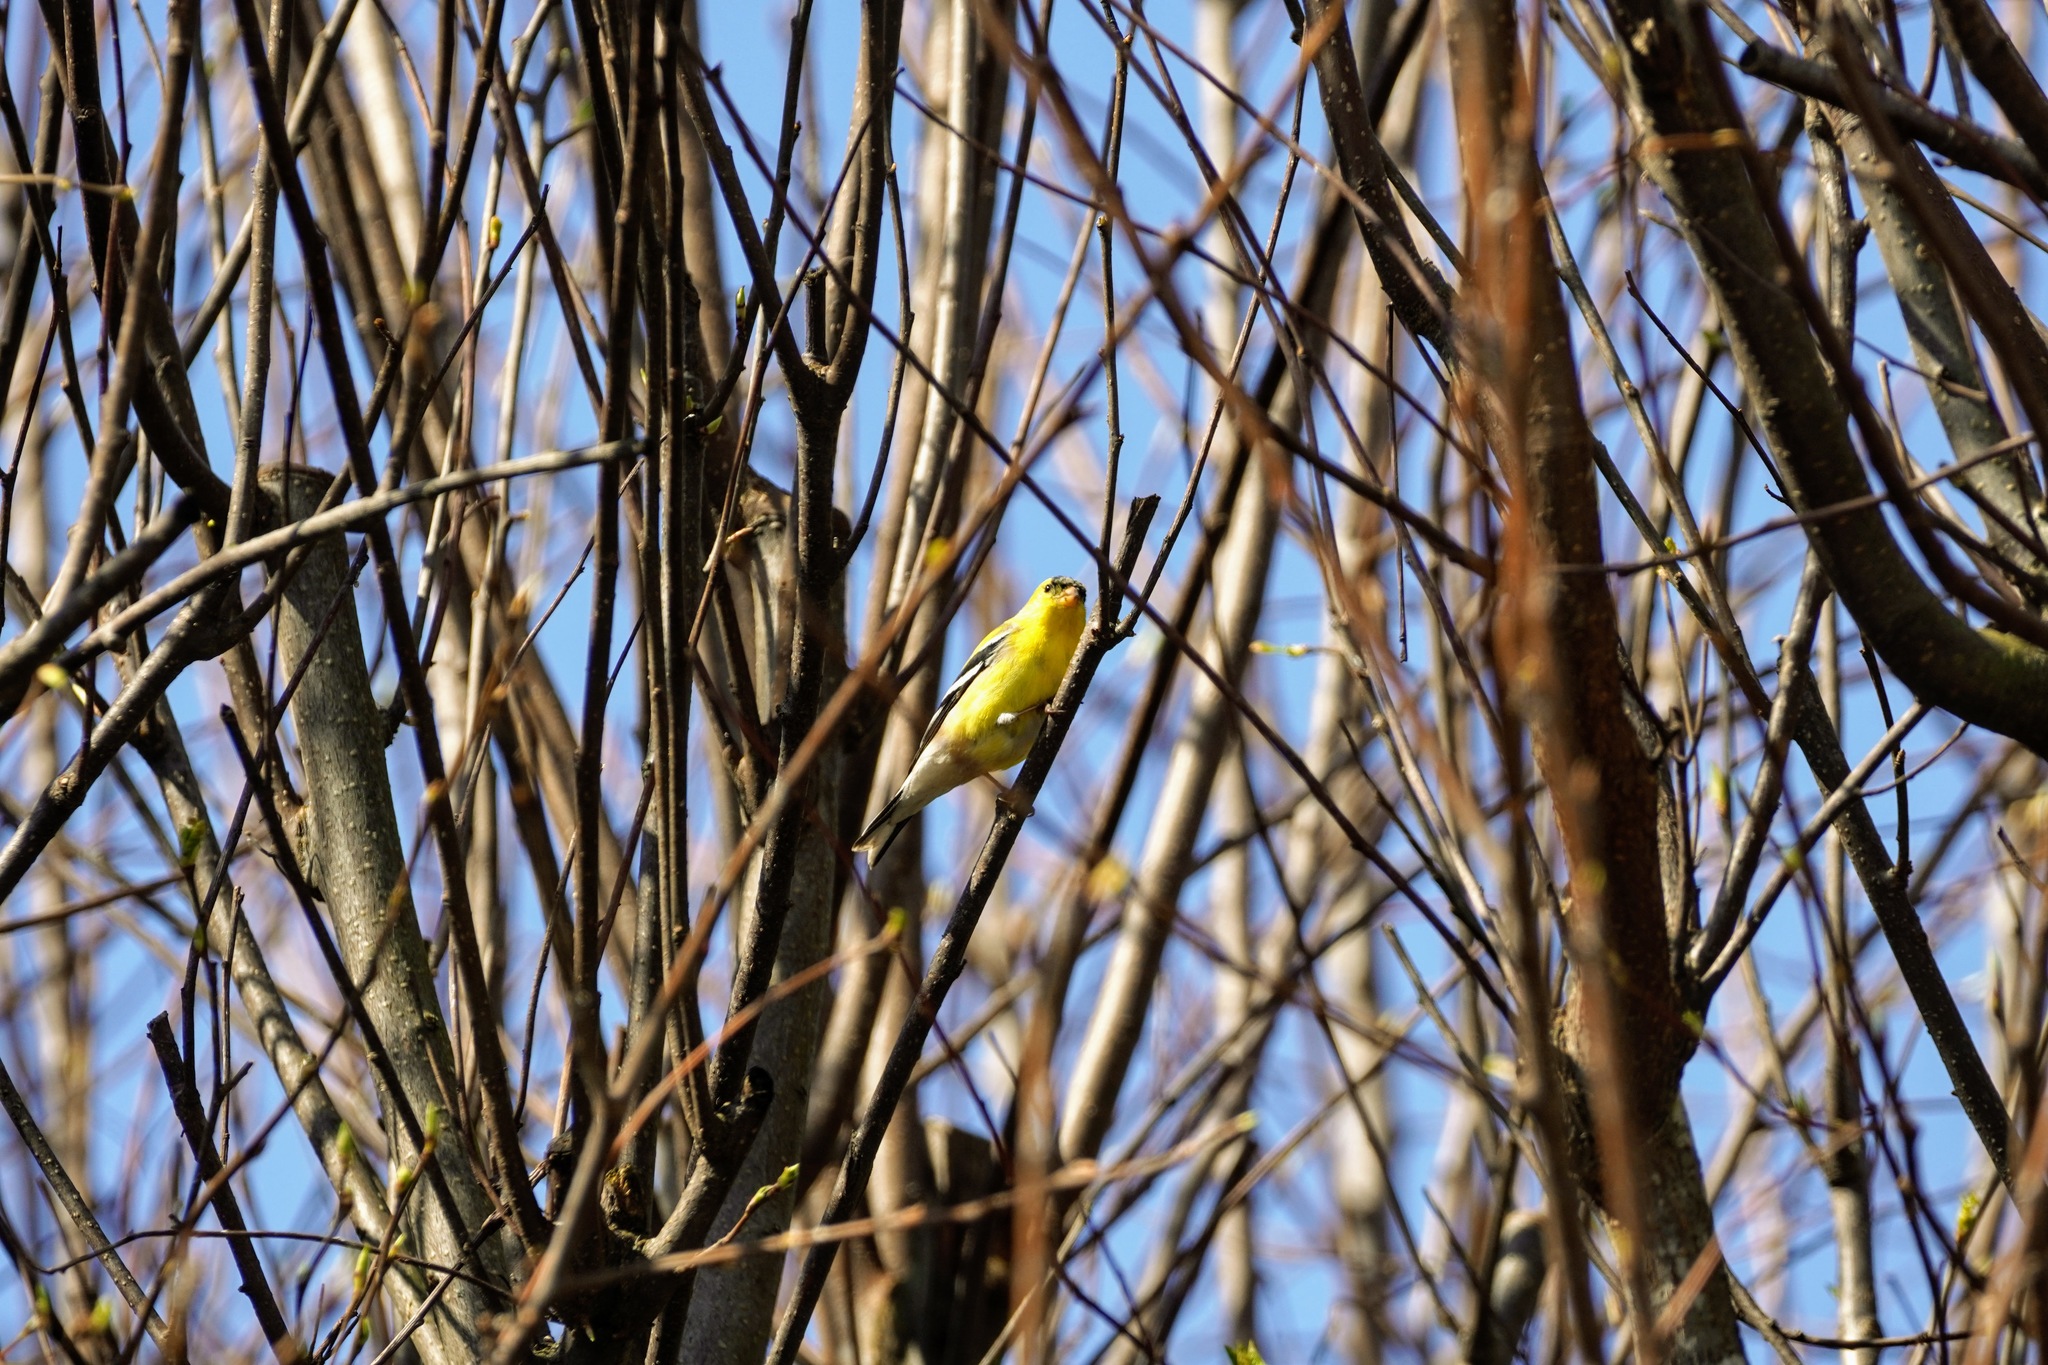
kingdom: Animalia
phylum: Chordata
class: Aves
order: Passeriformes
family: Fringillidae
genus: Spinus
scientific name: Spinus tristis
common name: American goldfinch
